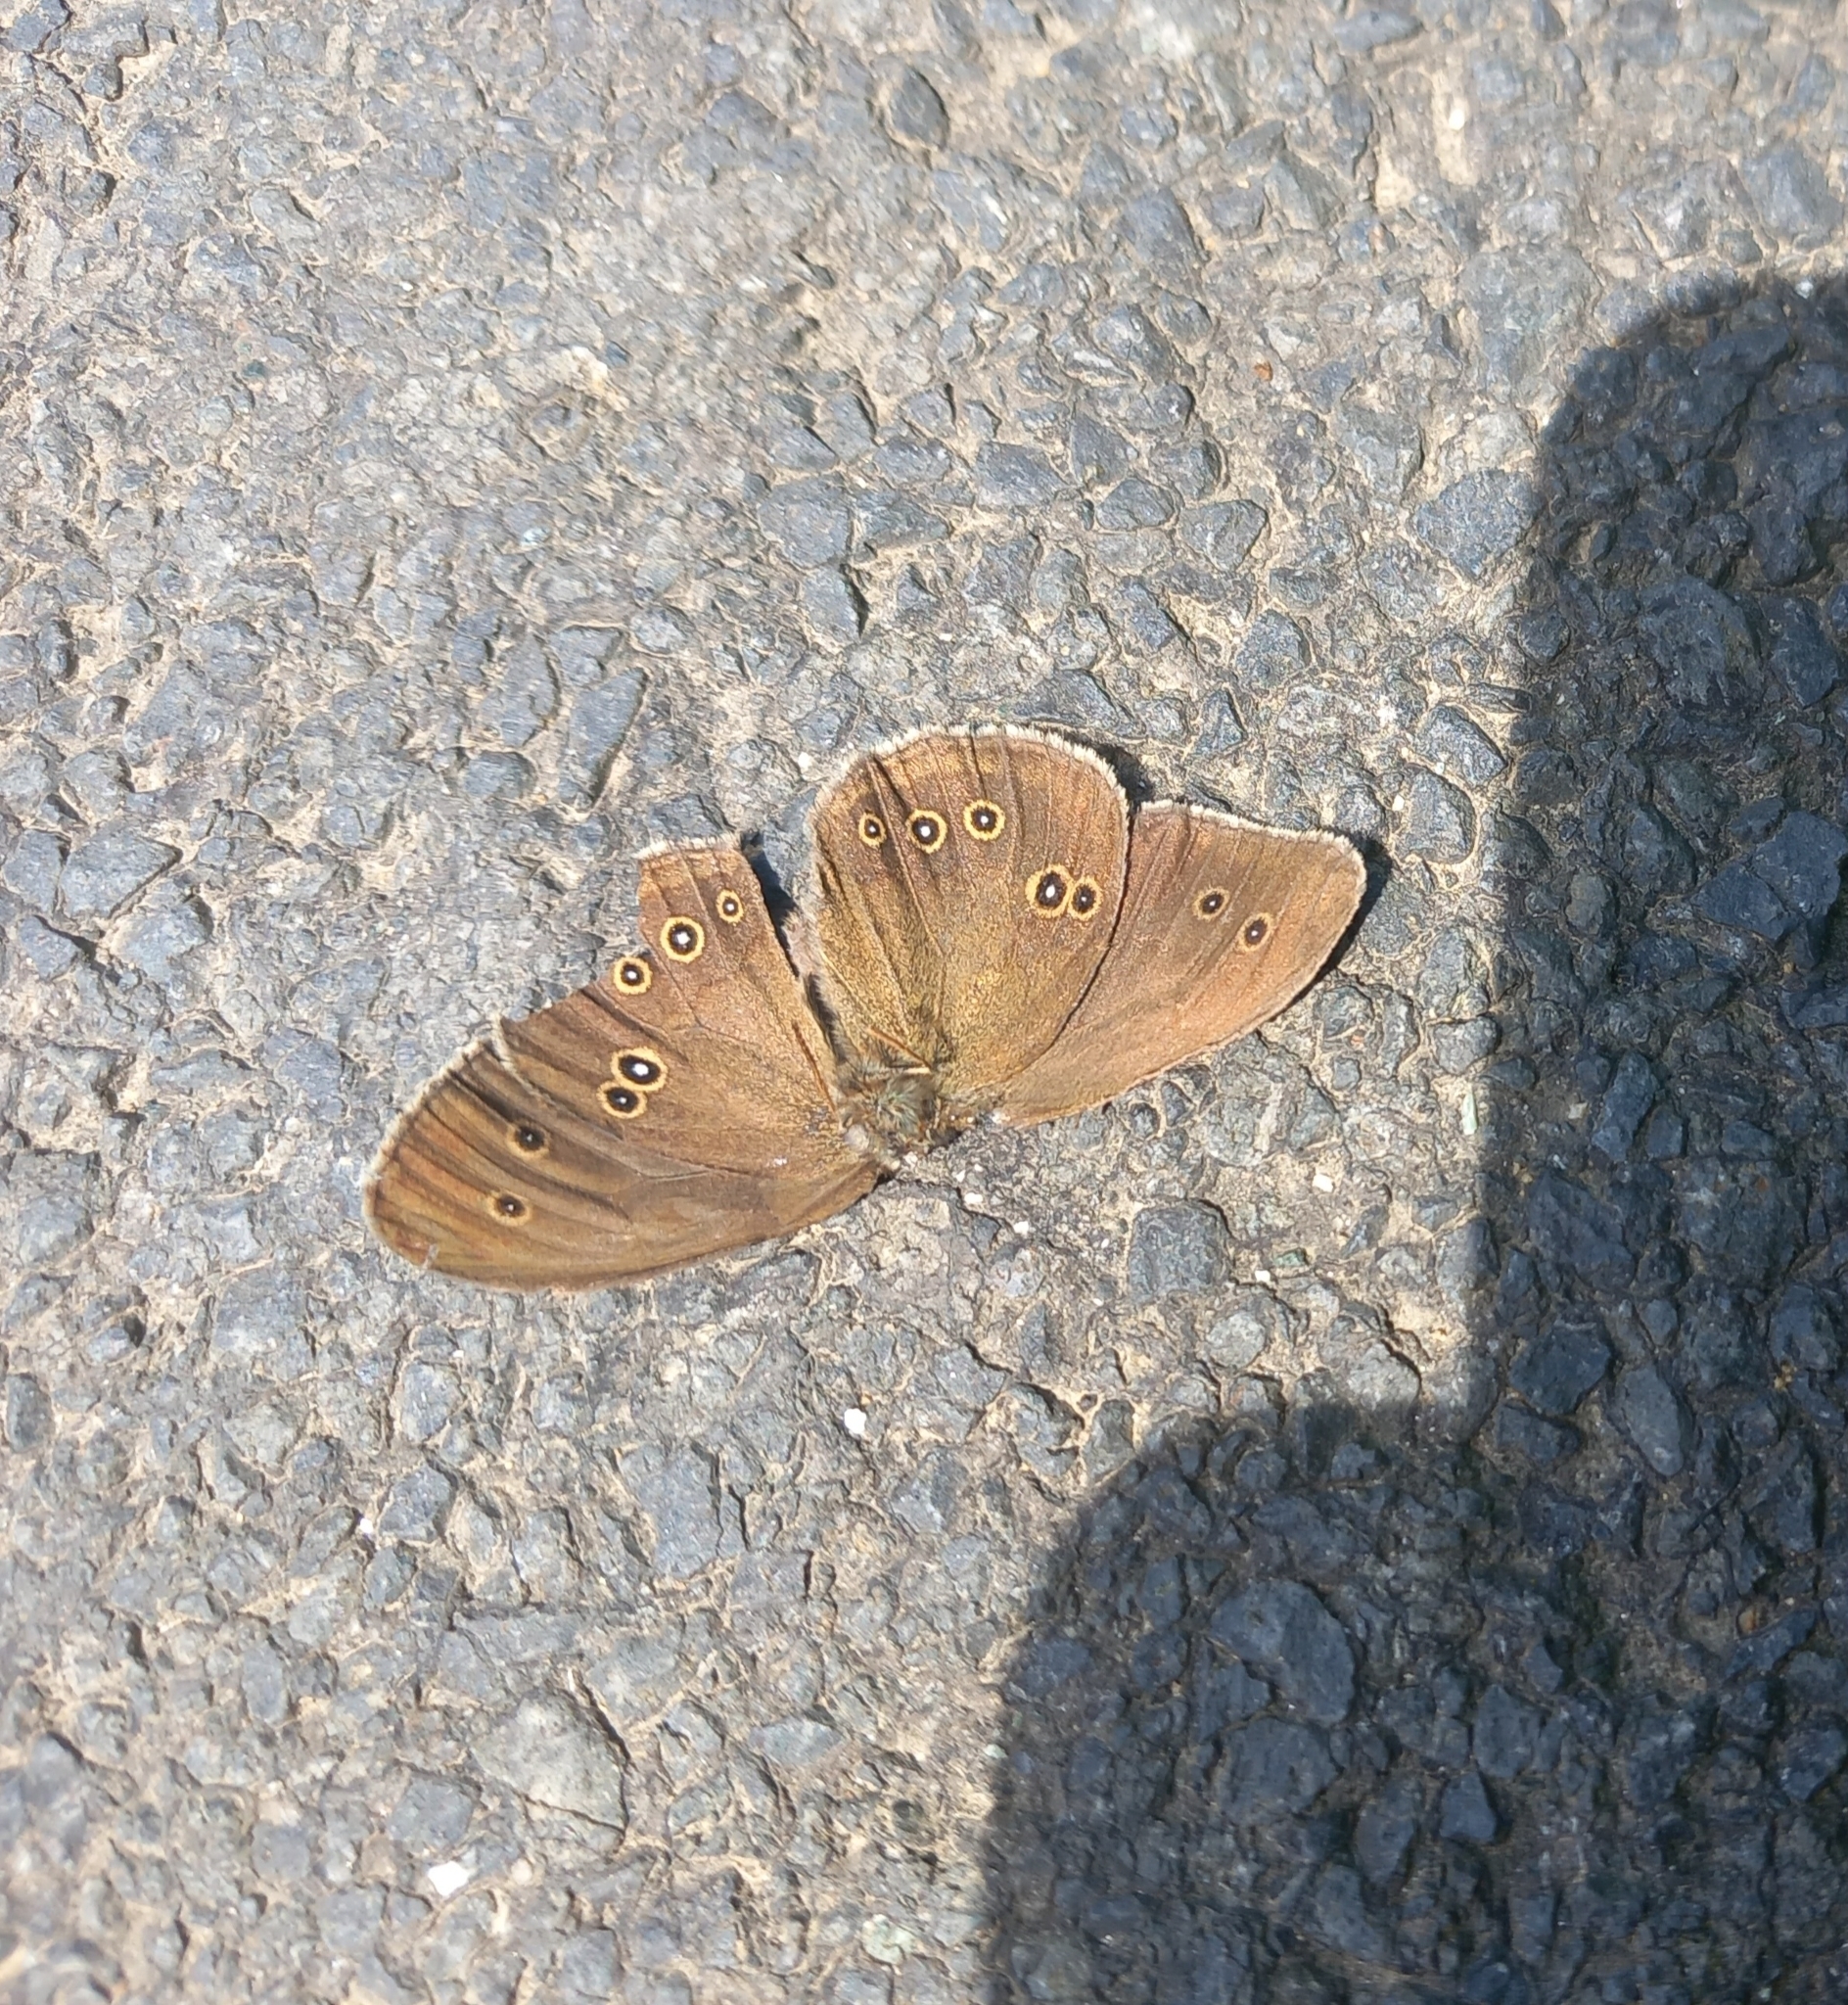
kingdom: Animalia
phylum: Arthropoda
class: Insecta
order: Lepidoptera
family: Nymphalidae
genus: Aphantopus
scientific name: Aphantopus hyperantus
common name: Ringlet
